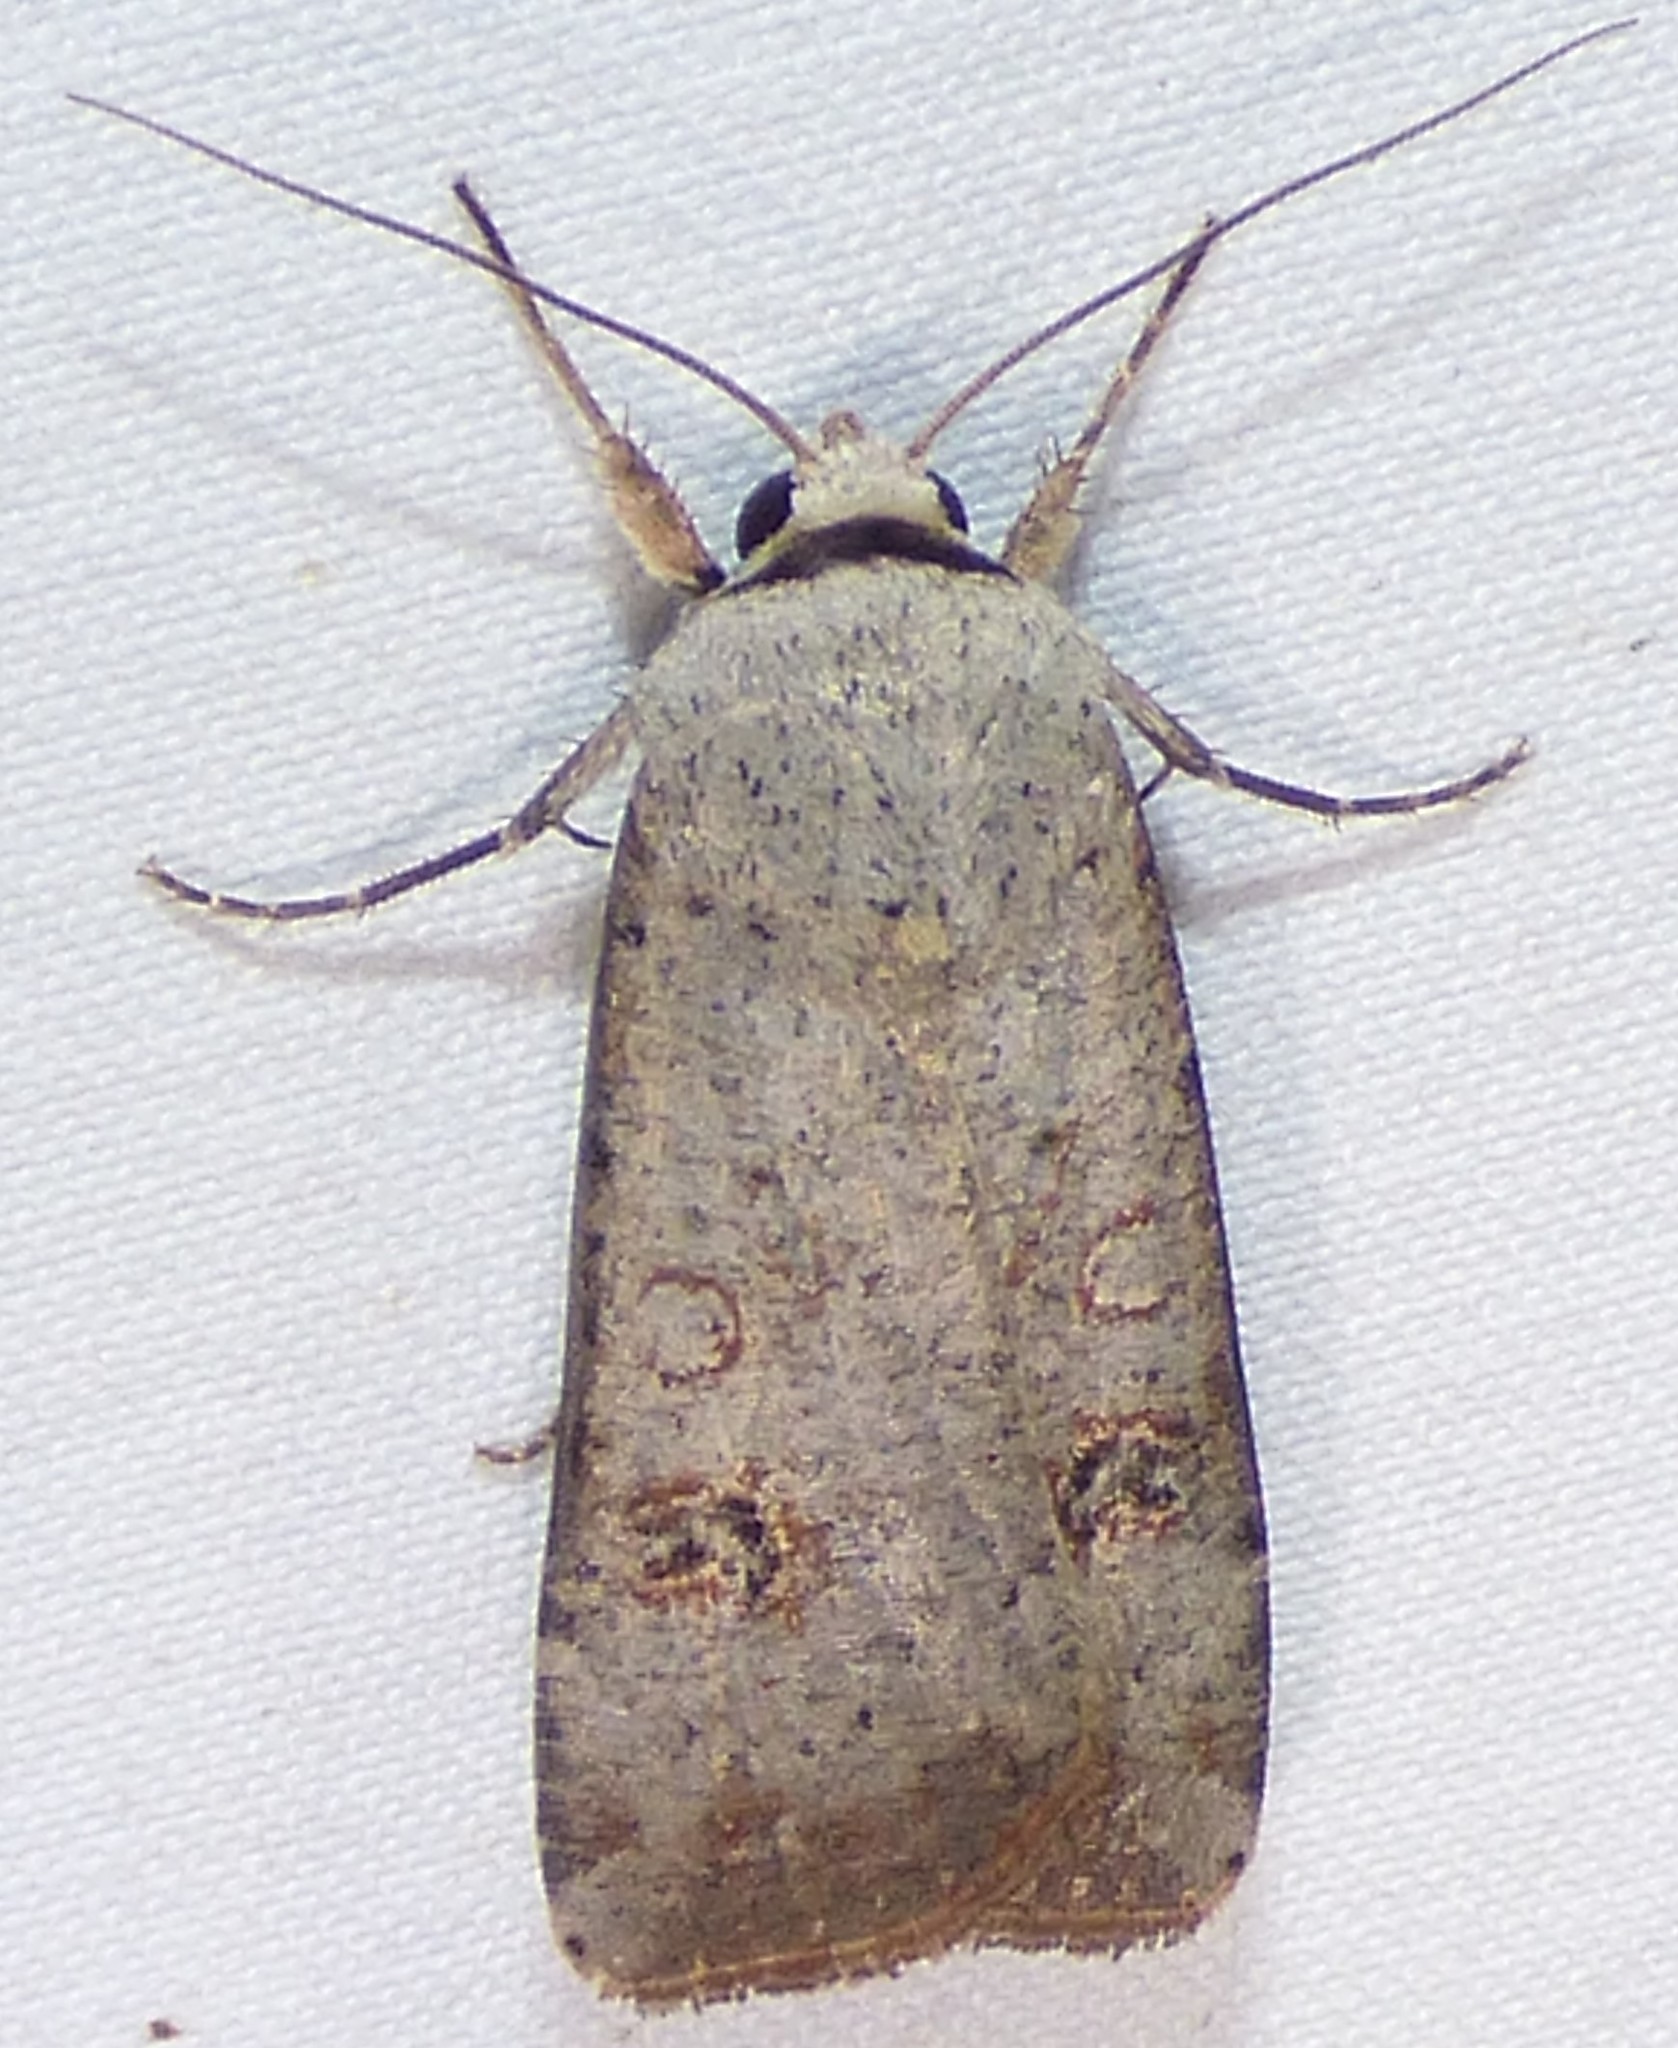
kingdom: Animalia
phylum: Arthropoda
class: Insecta
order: Lepidoptera
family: Noctuidae
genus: Anicla
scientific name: Anicla infecta
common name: Green cutworm
